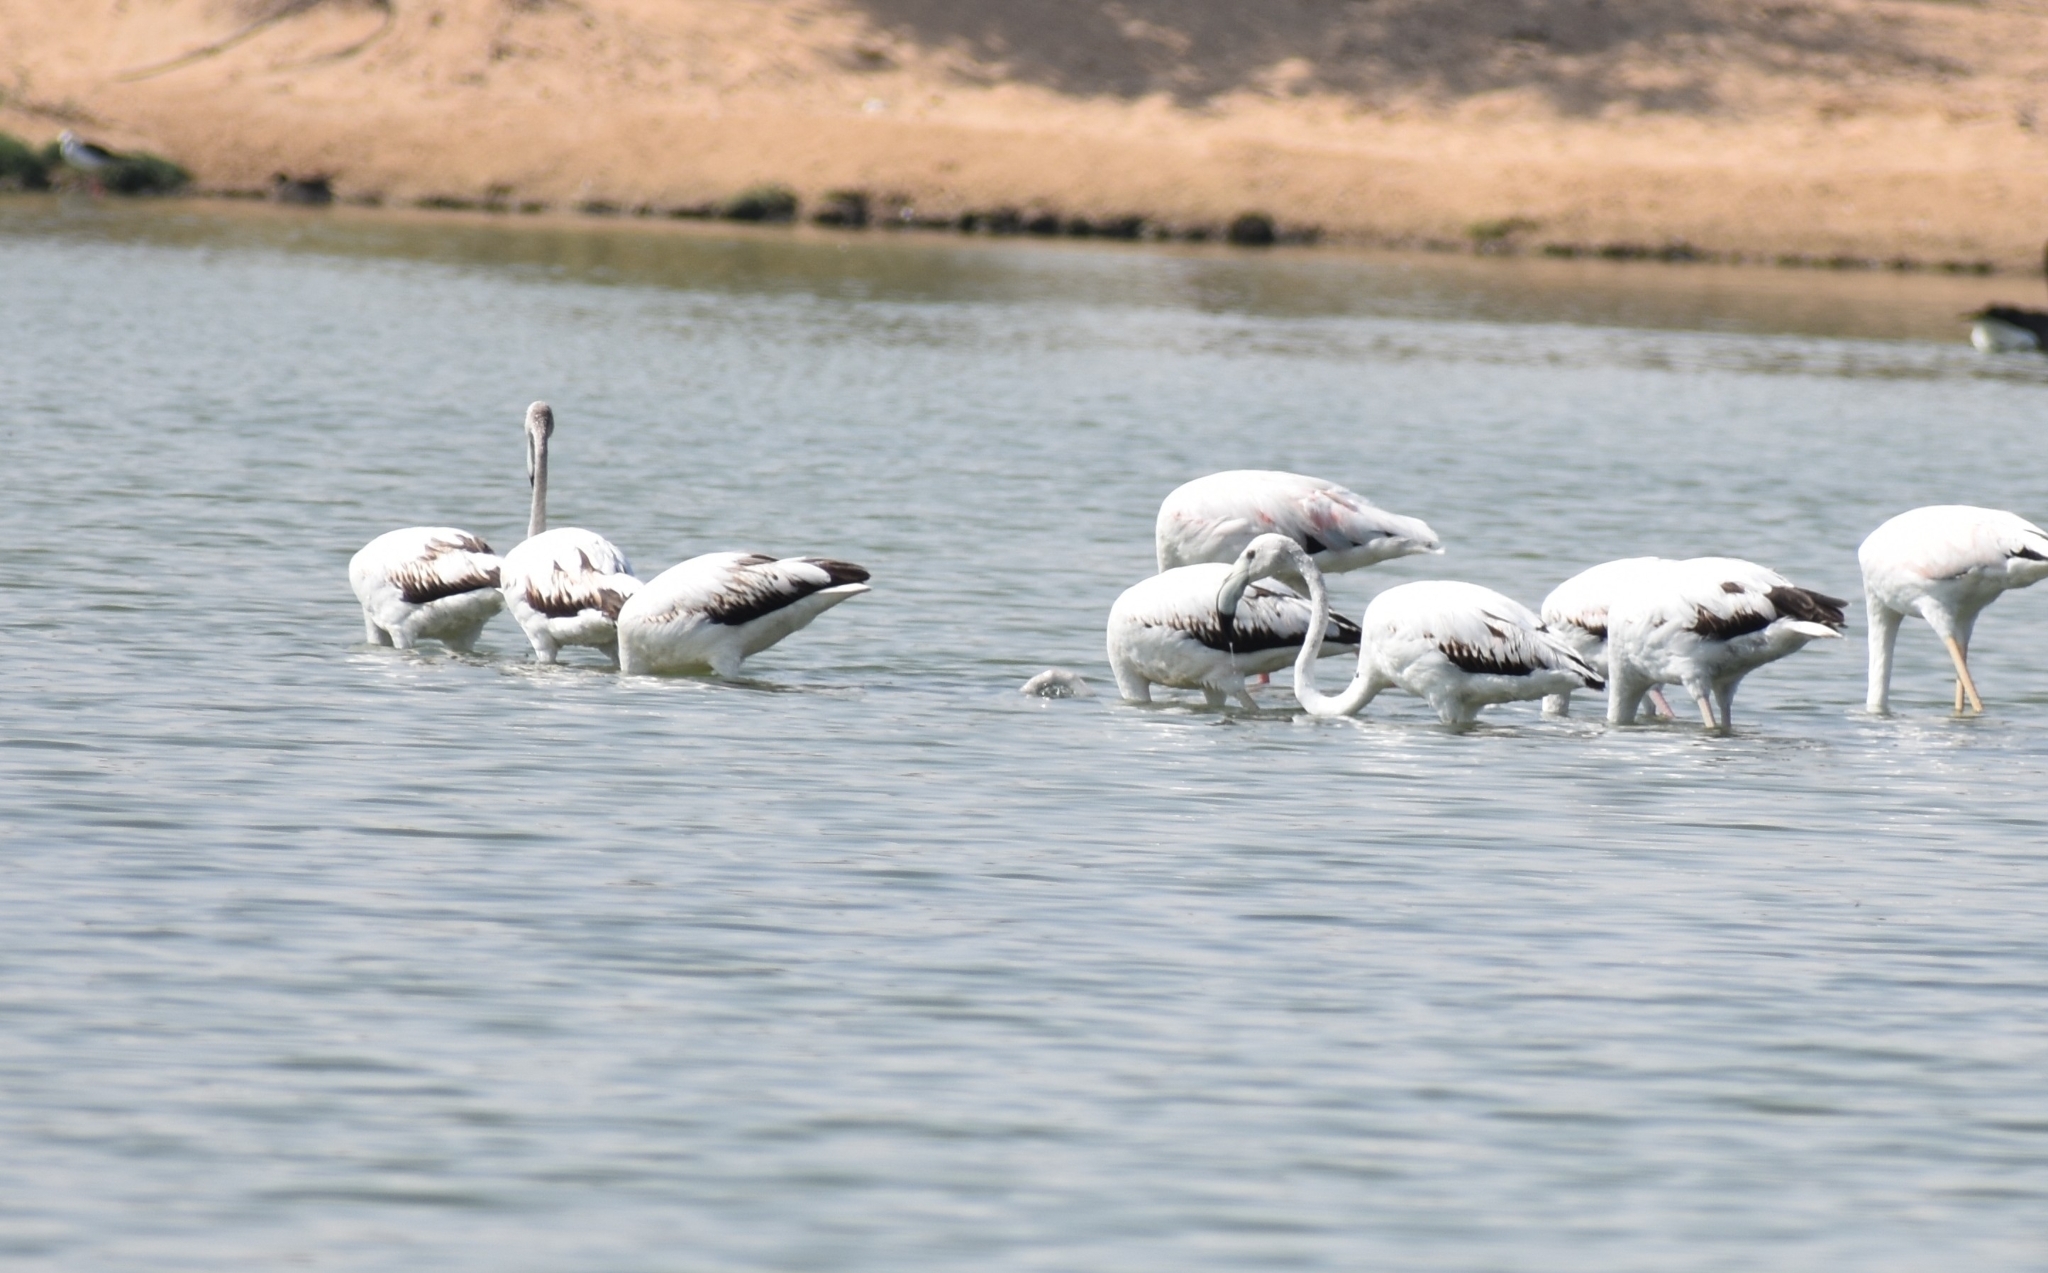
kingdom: Animalia
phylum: Chordata
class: Aves
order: Phoenicopteriformes
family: Phoenicopteridae
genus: Phoenicopterus
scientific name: Phoenicopterus roseus
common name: Greater flamingo
